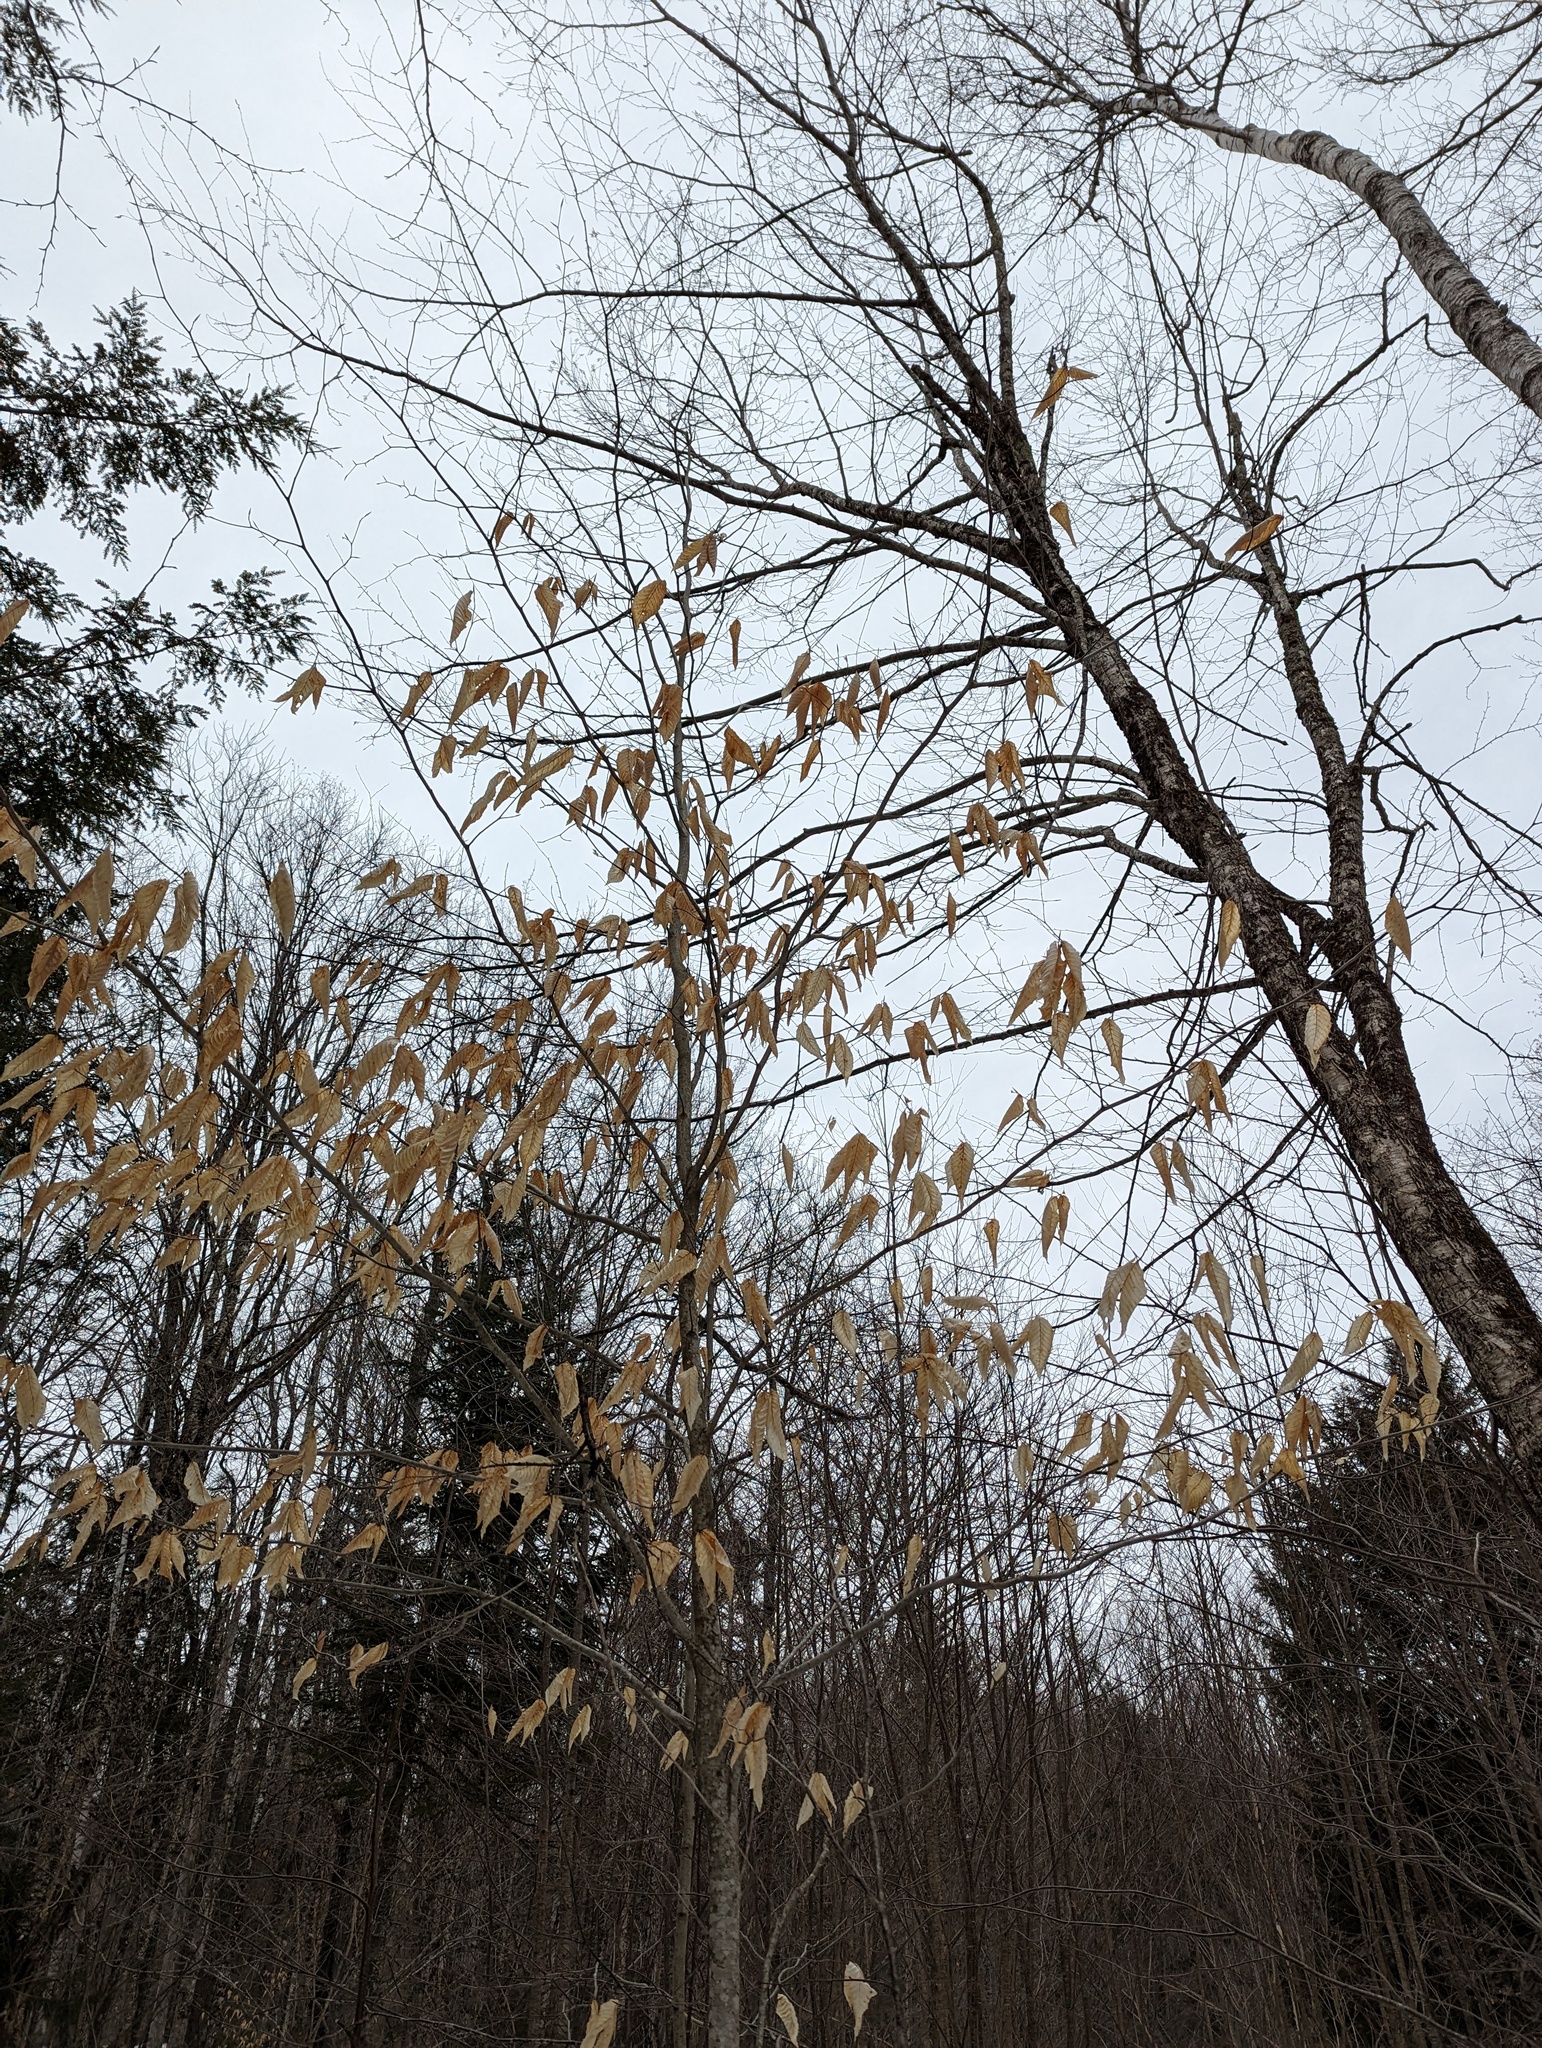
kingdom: Plantae
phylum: Tracheophyta
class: Magnoliopsida
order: Fagales
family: Fagaceae
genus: Fagus
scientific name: Fagus grandifolia
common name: American beech
